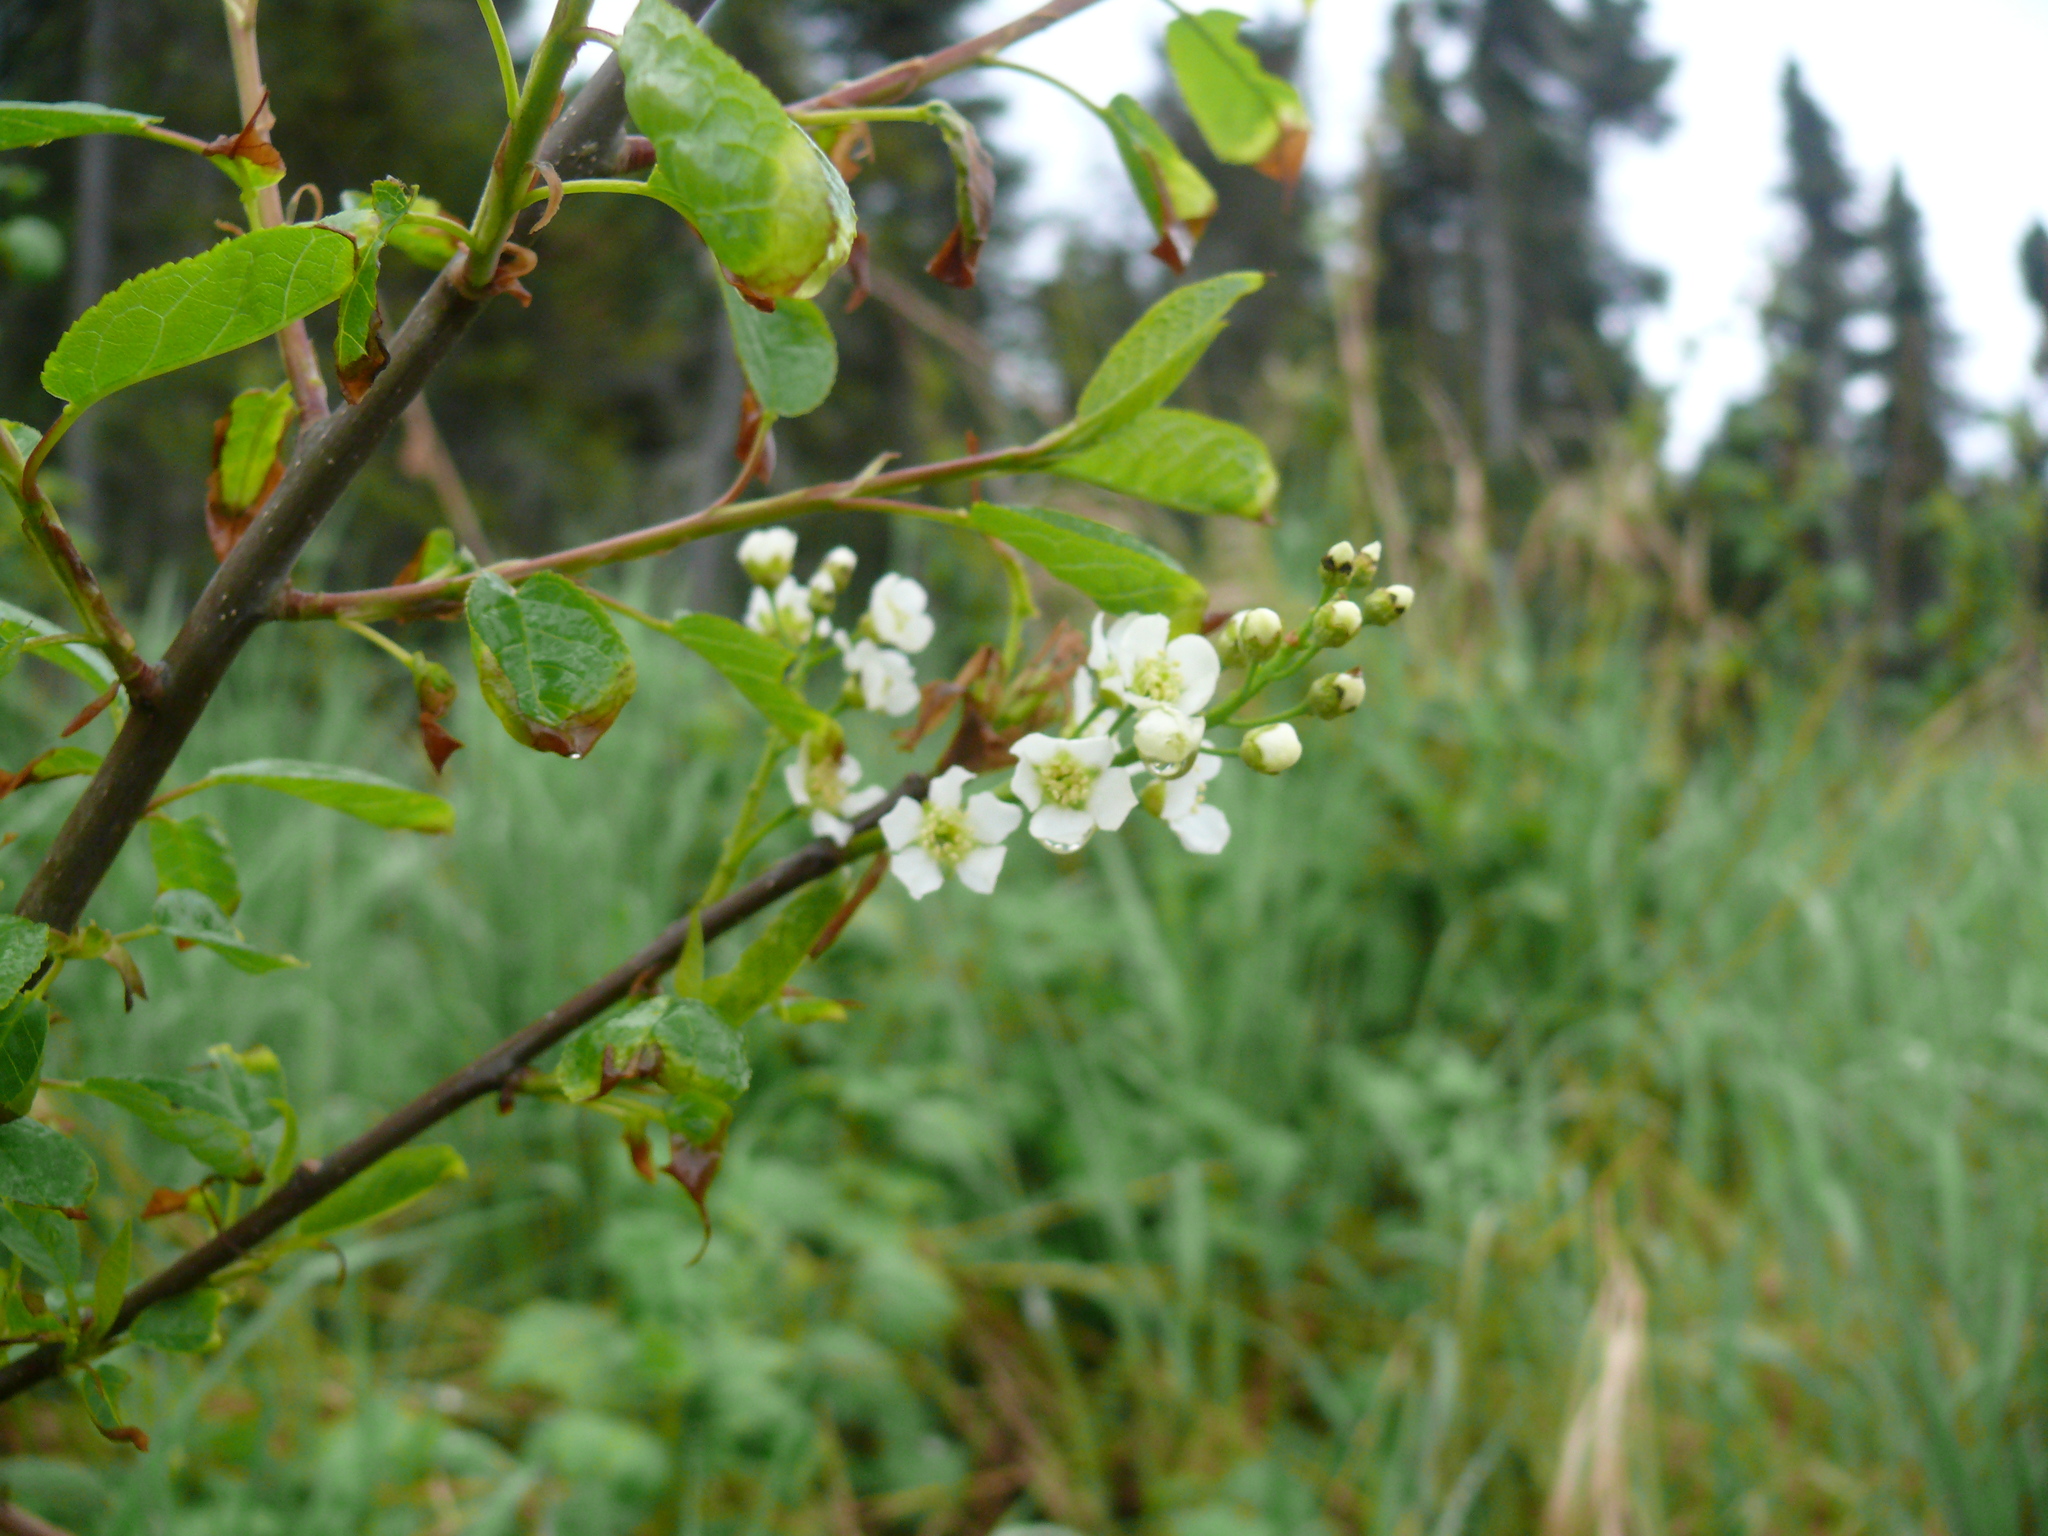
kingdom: Plantae
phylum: Tracheophyta
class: Magnoliopsida
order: Rosales
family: Rosaceae
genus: Prunus
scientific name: Prunus padus
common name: Bird cherry
